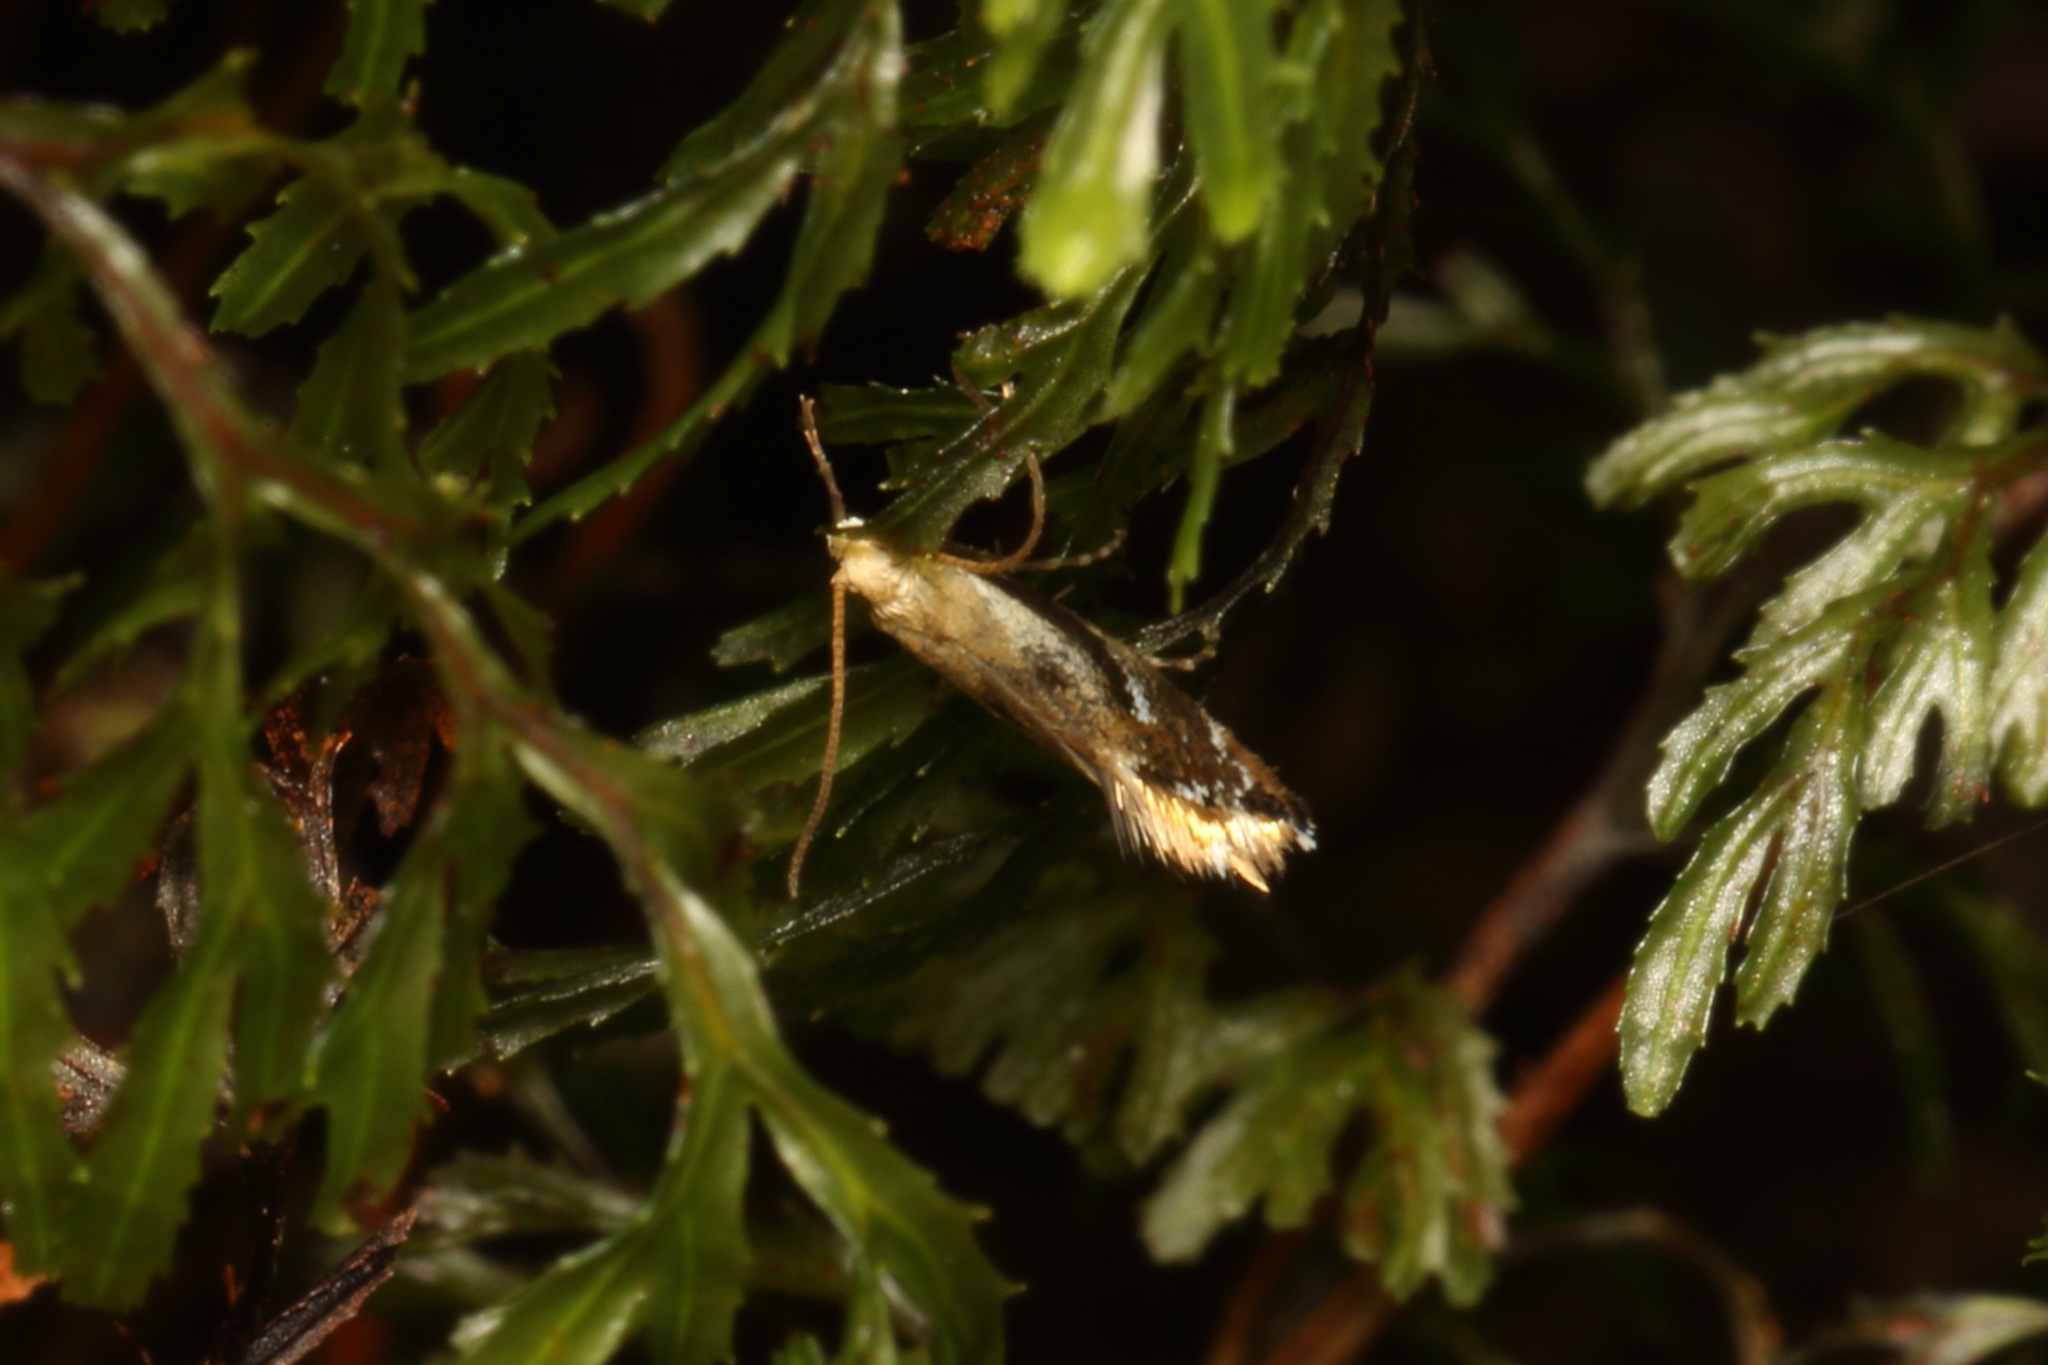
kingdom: Animalia
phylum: Arthropoda
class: Insecta
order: Lepidoptera
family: Mnesarchaeidae
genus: Mnesarchella
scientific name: Mnesarchella acuta
